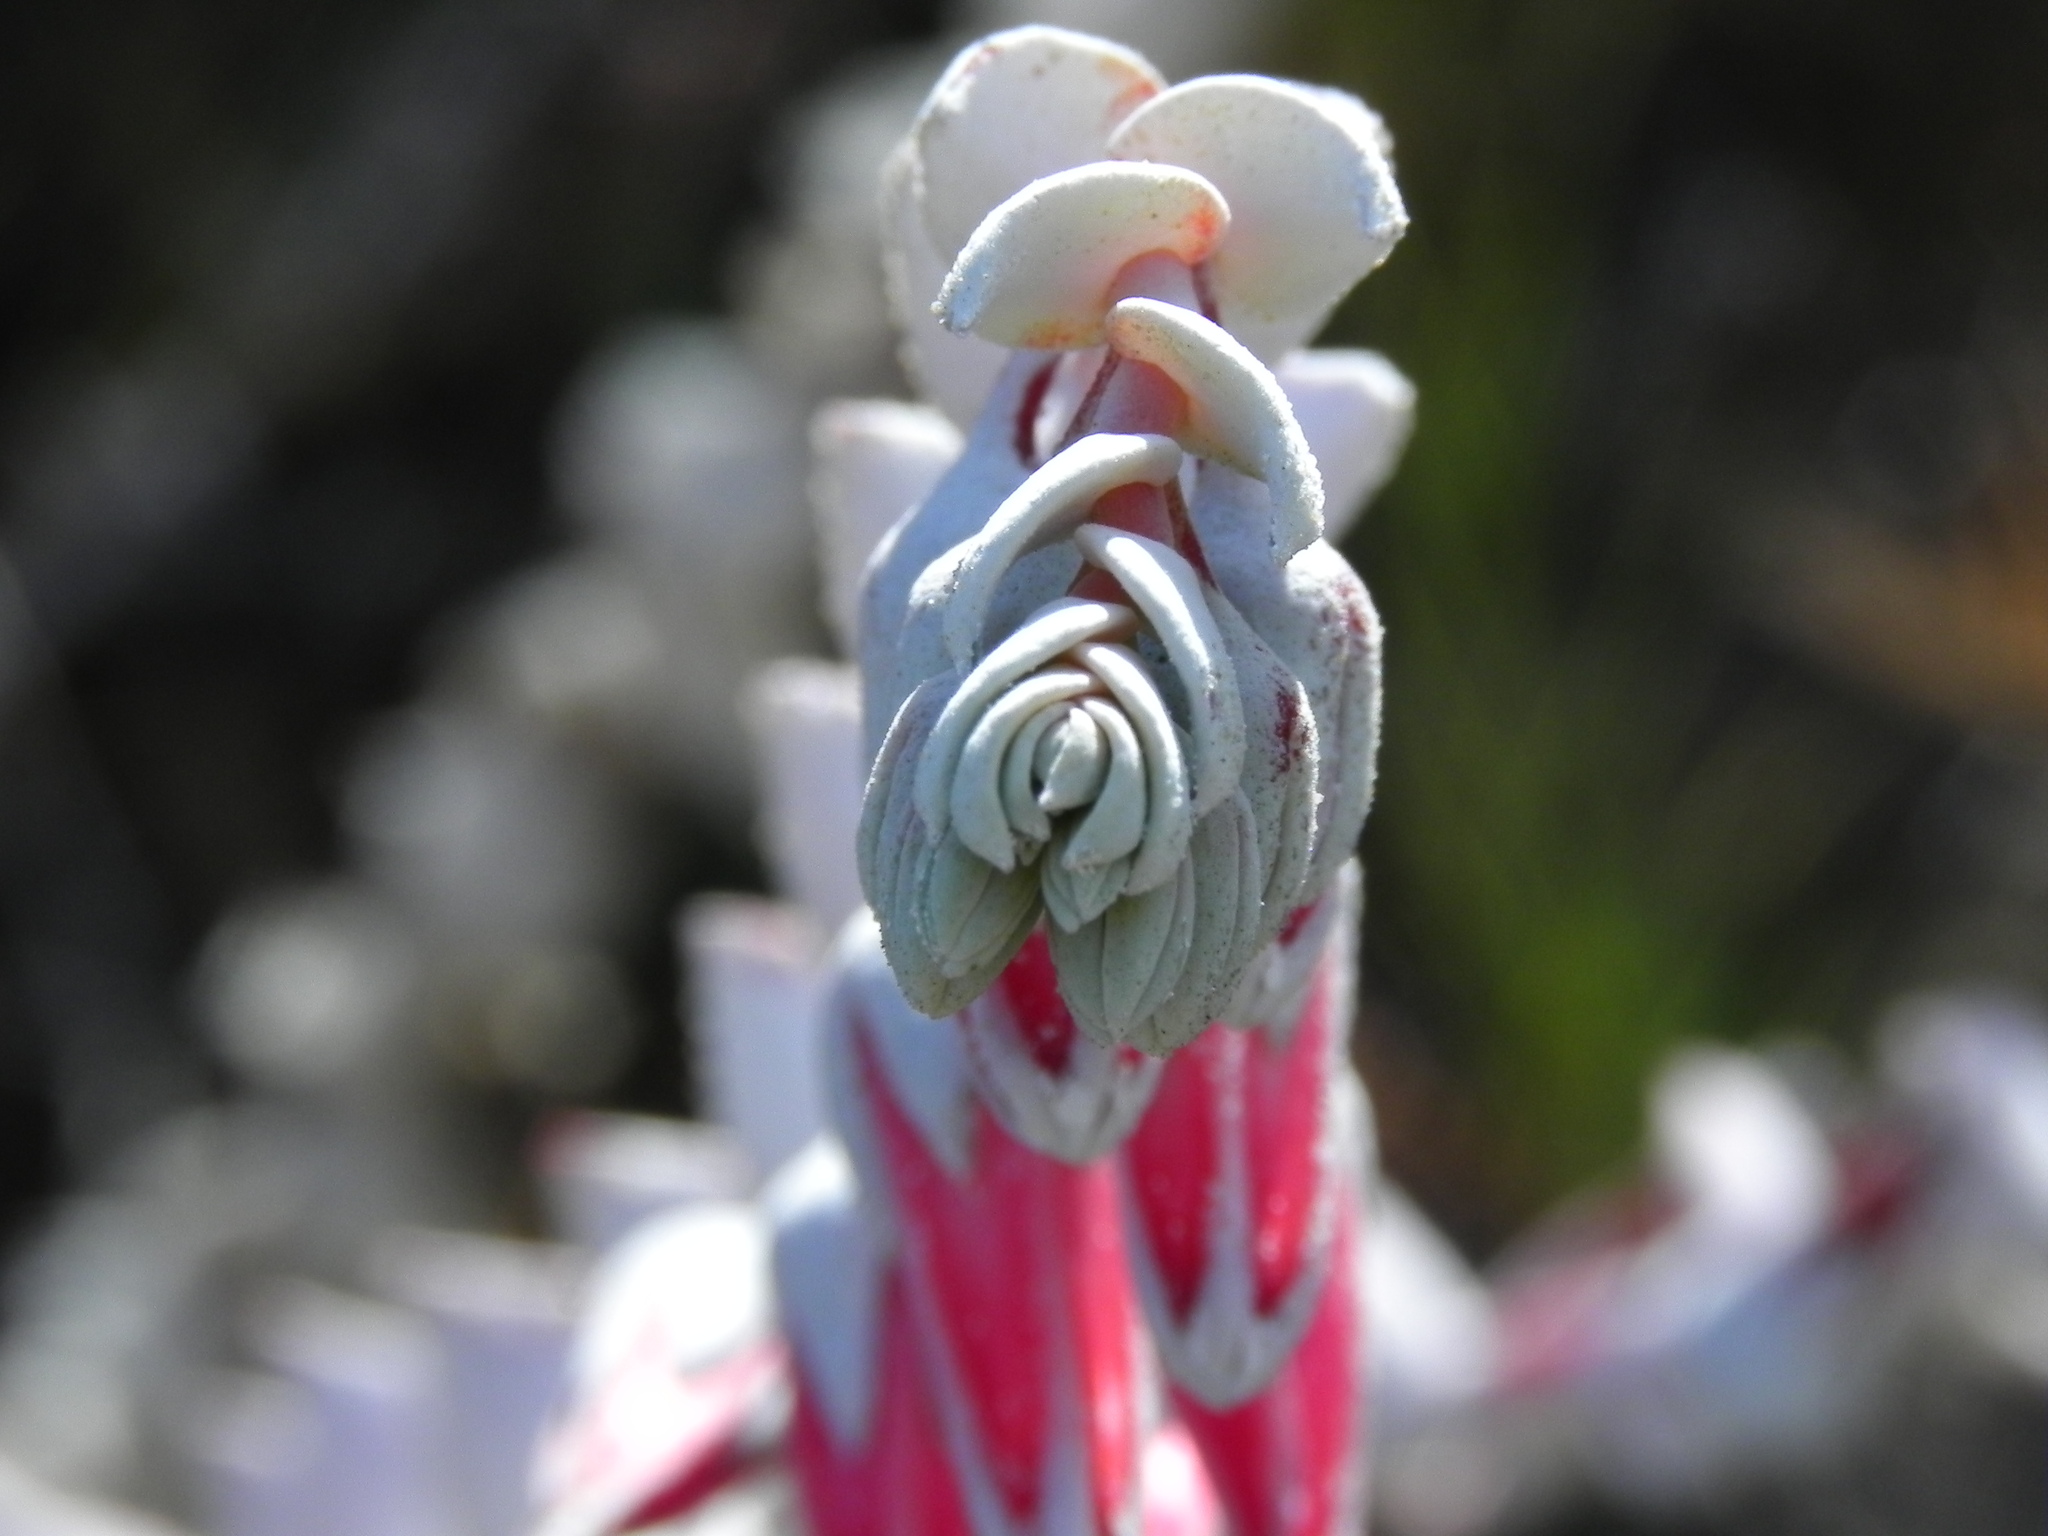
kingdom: Plantae
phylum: Tracheophyta
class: Magnoliopsida
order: Saxifragales
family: Crassulaceae
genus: Dudleya
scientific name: Dudleya pulverulenta
